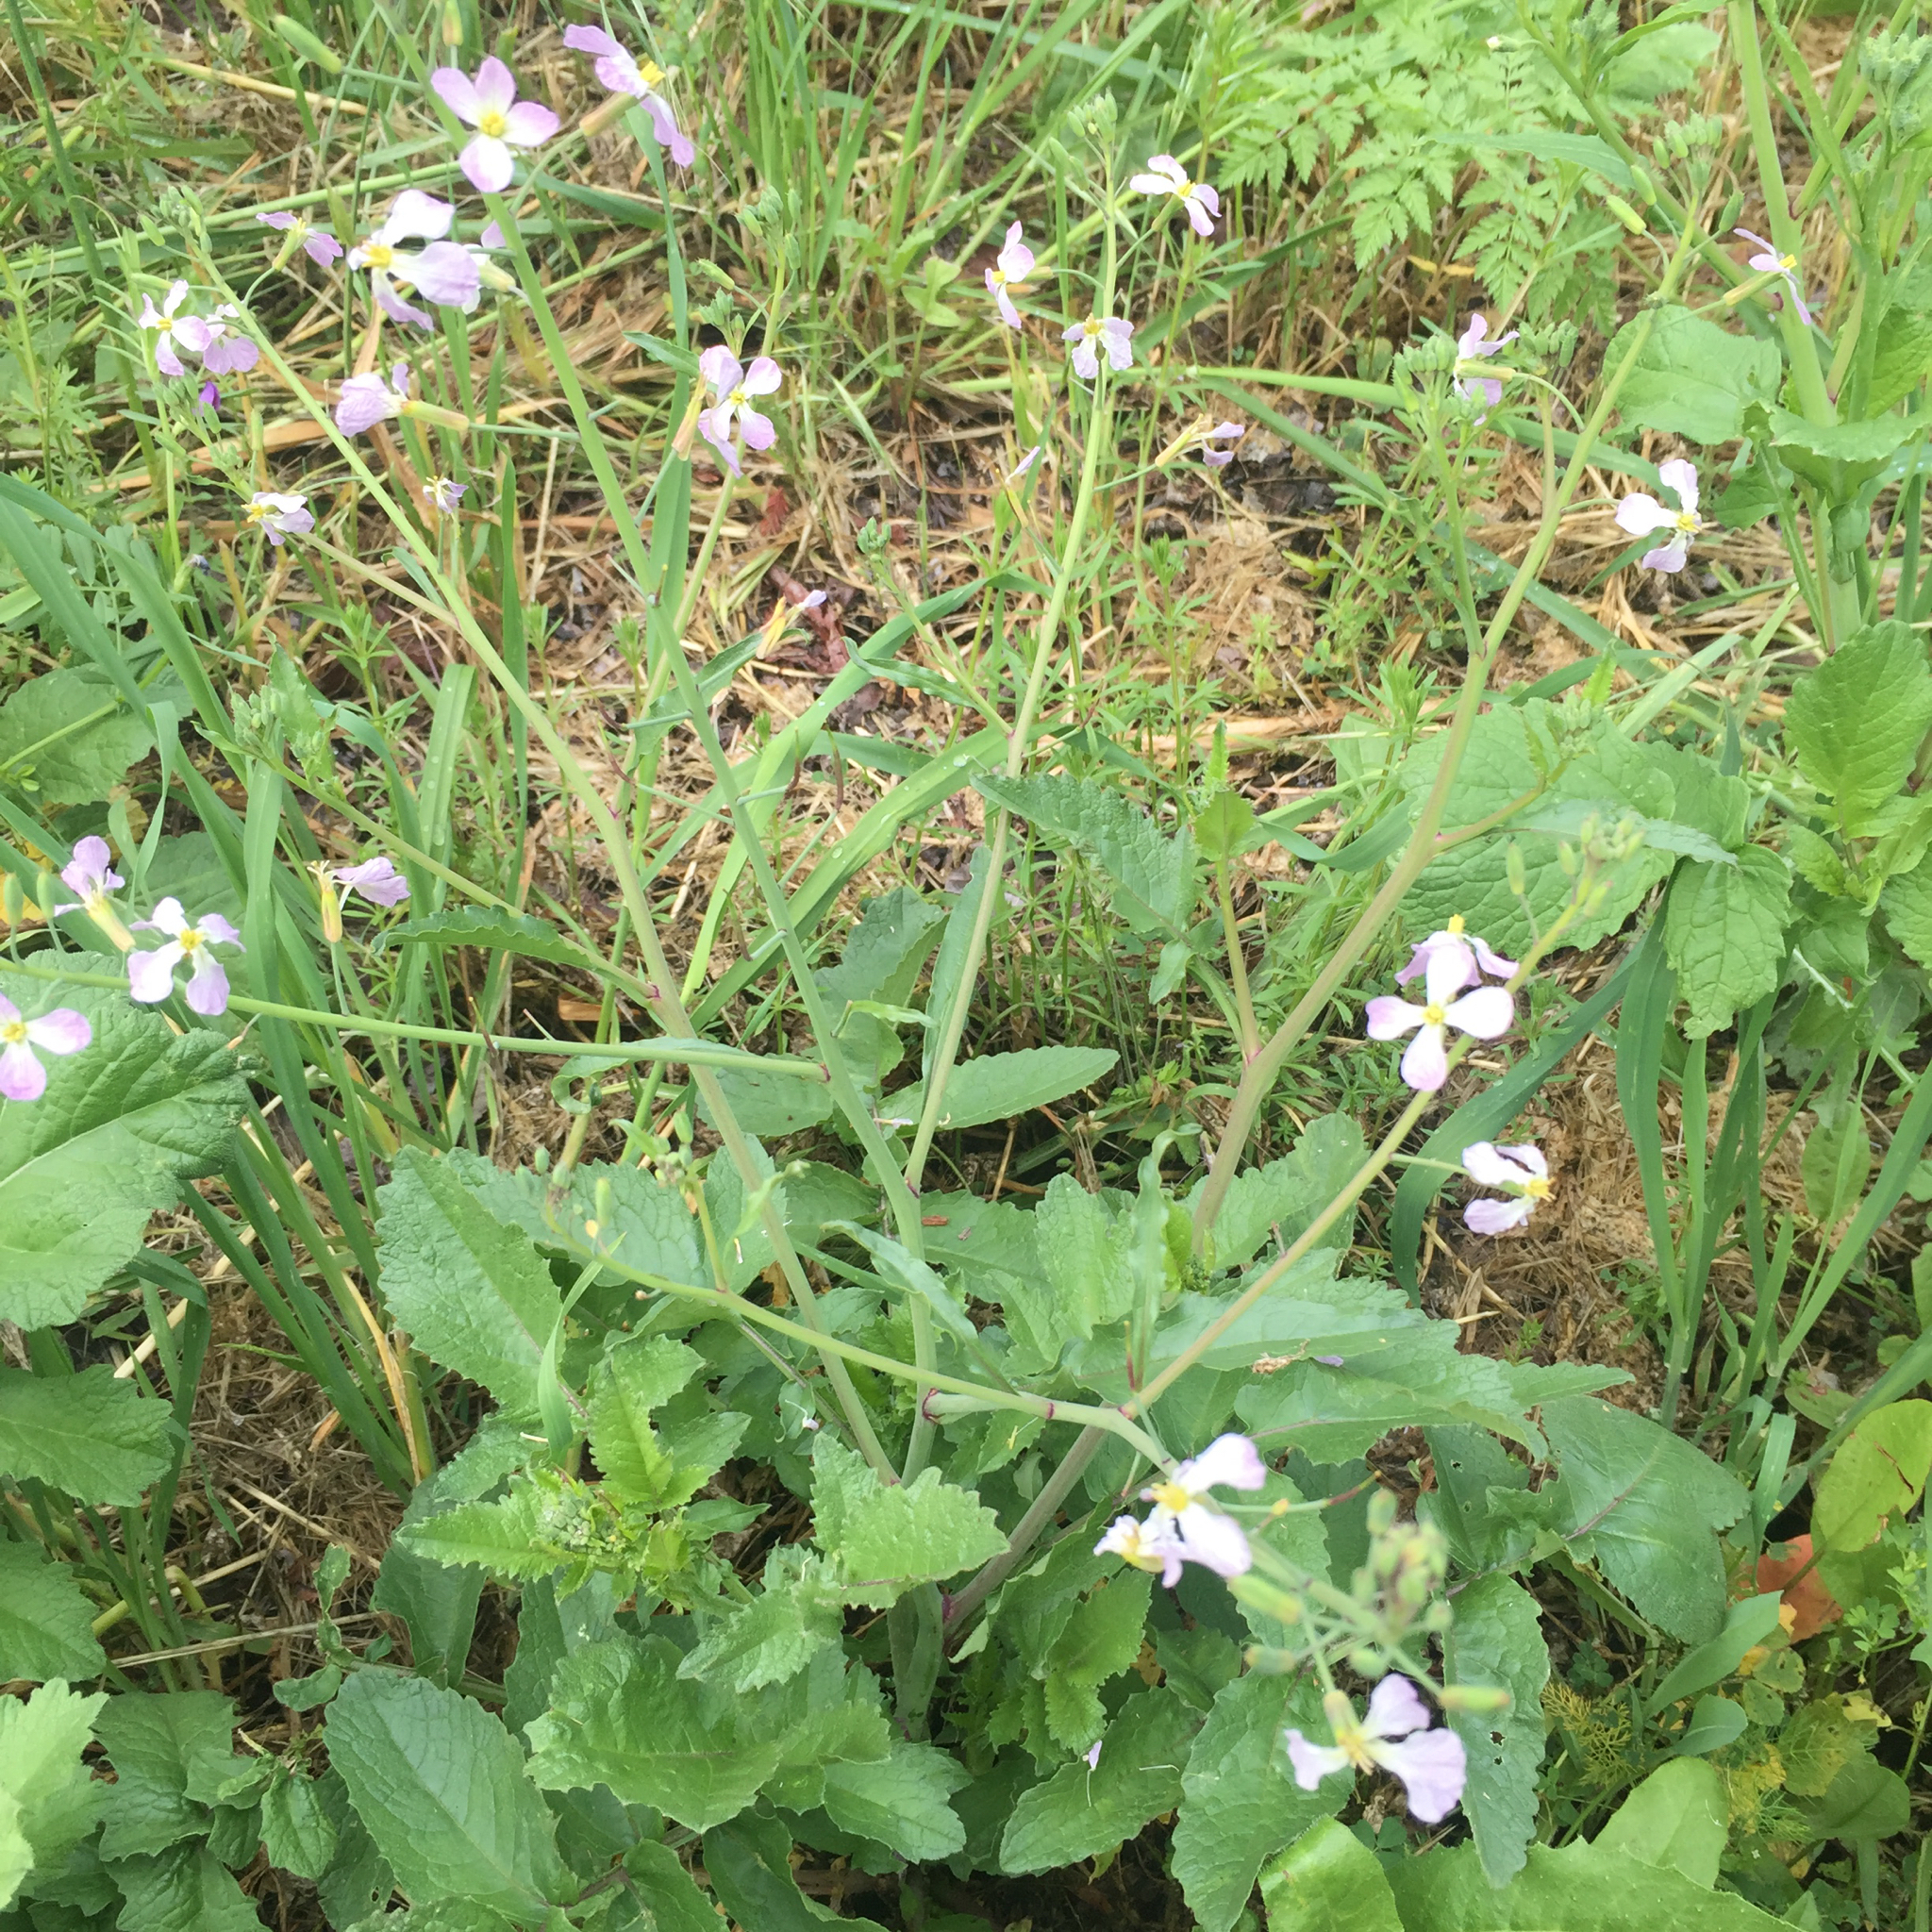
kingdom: Plantae
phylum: Tracheophyta
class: Magnoliopsida
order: Brassicales
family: Brassicaceae
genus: Raphanus
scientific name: Raphanus raphanistrum
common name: Wild radish
